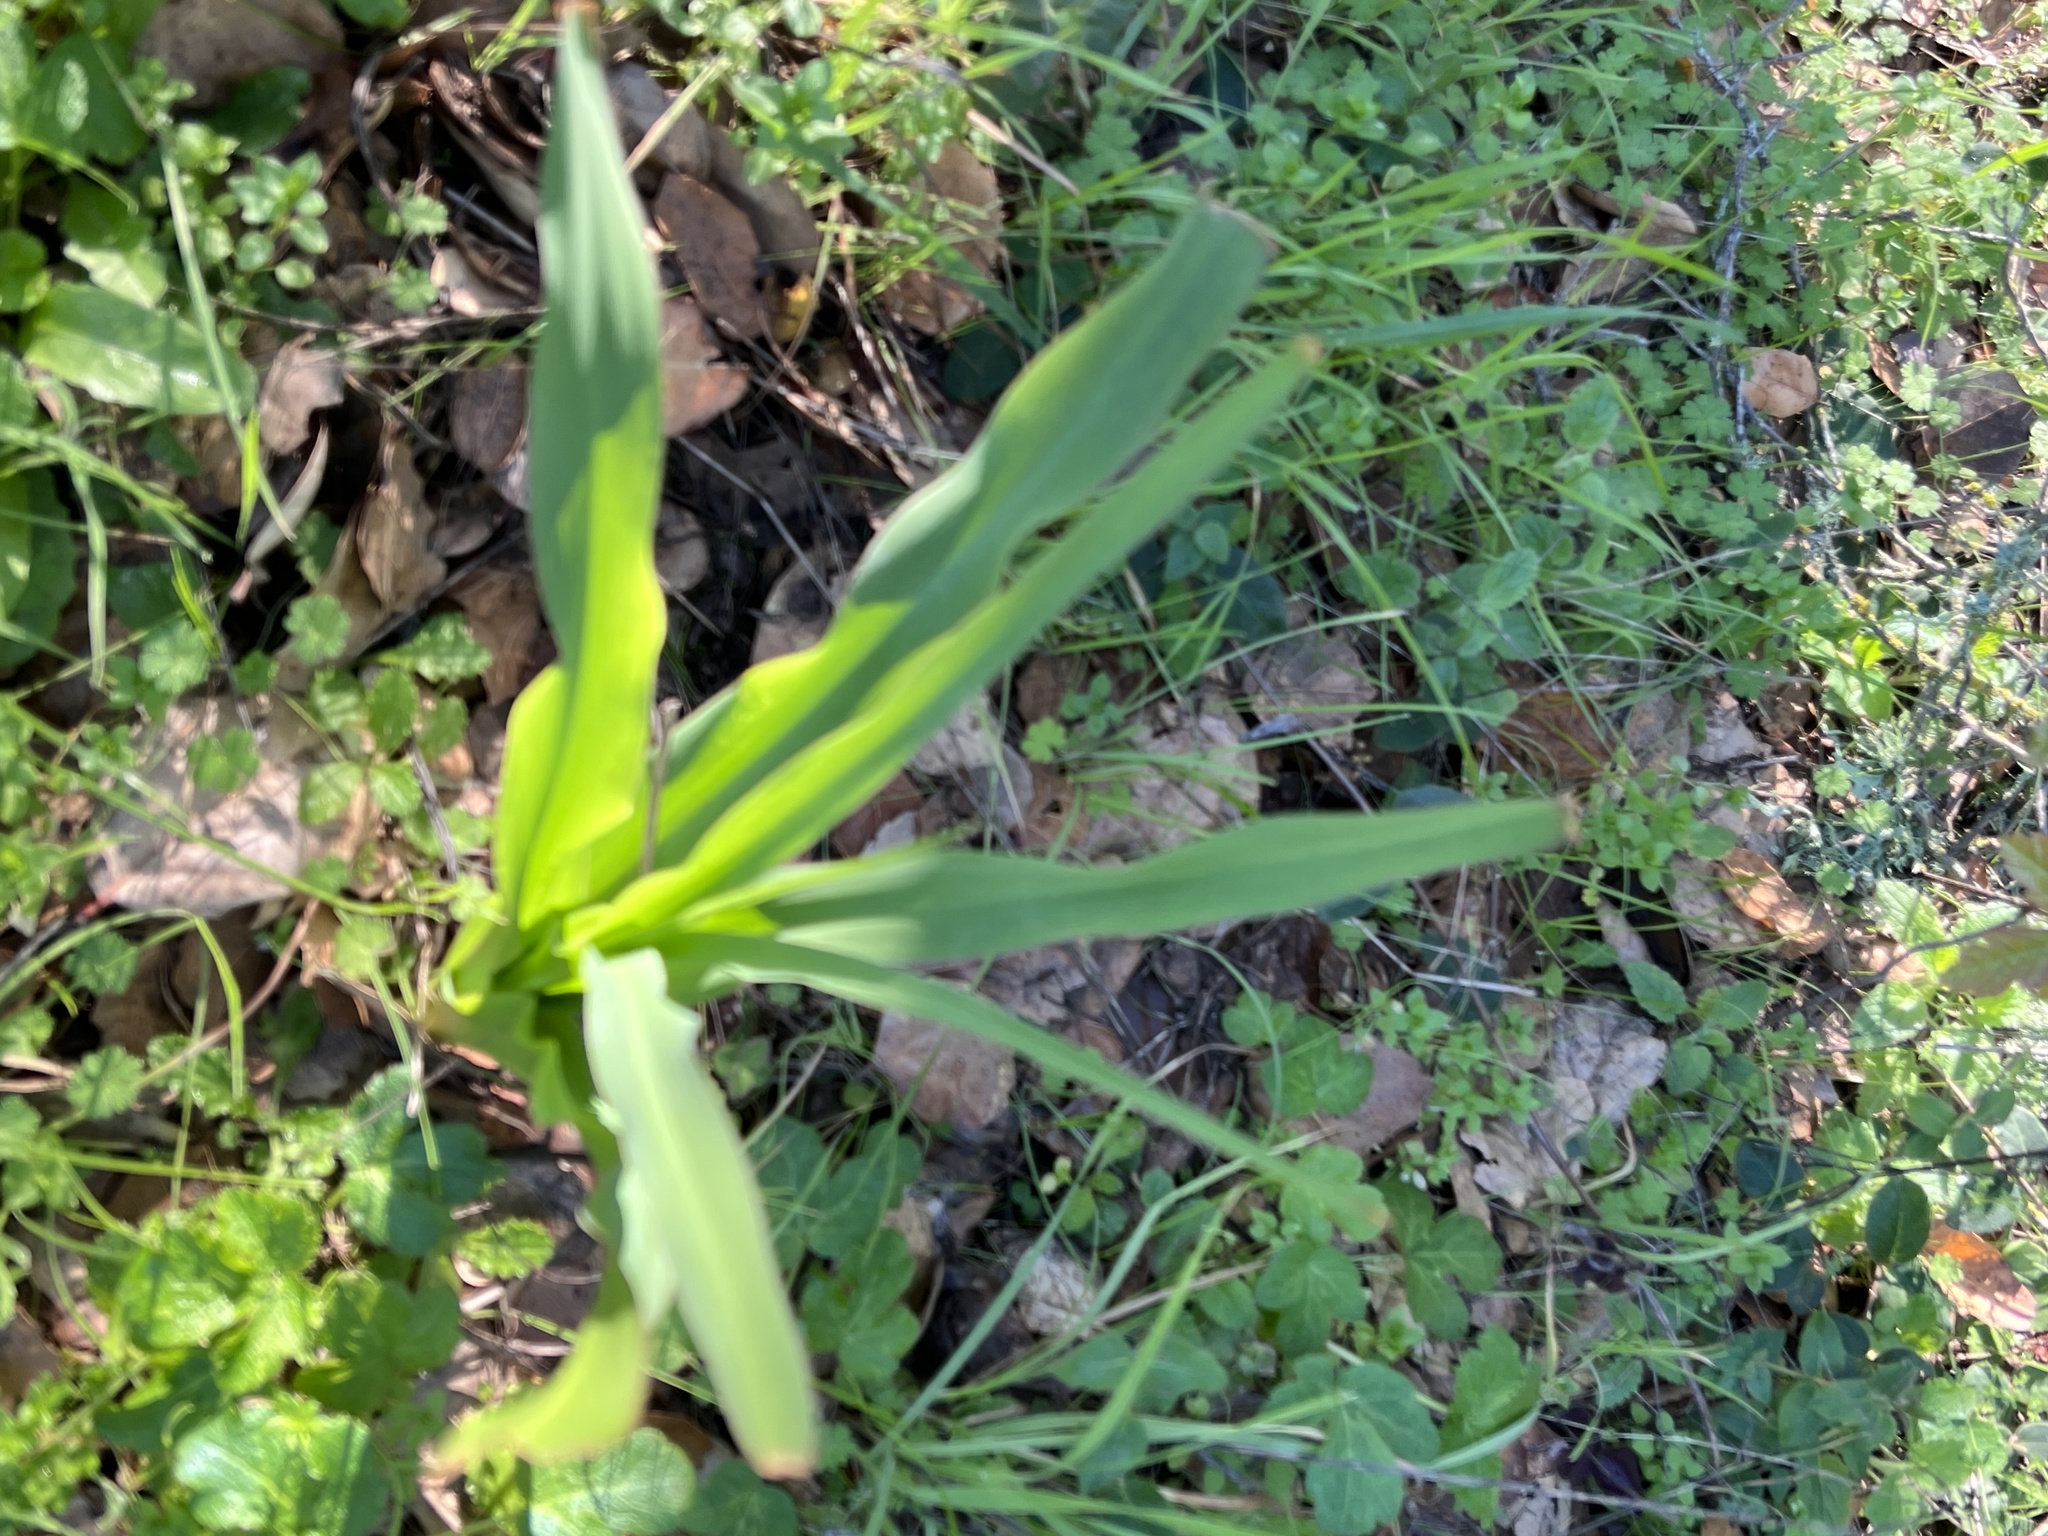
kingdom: Plantae
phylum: Tracheophyta
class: Liliopsida
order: Asparagales
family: Asparagaceae
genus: Chlorogalum
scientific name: Chlorogalum pomeridianum
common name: Amole
